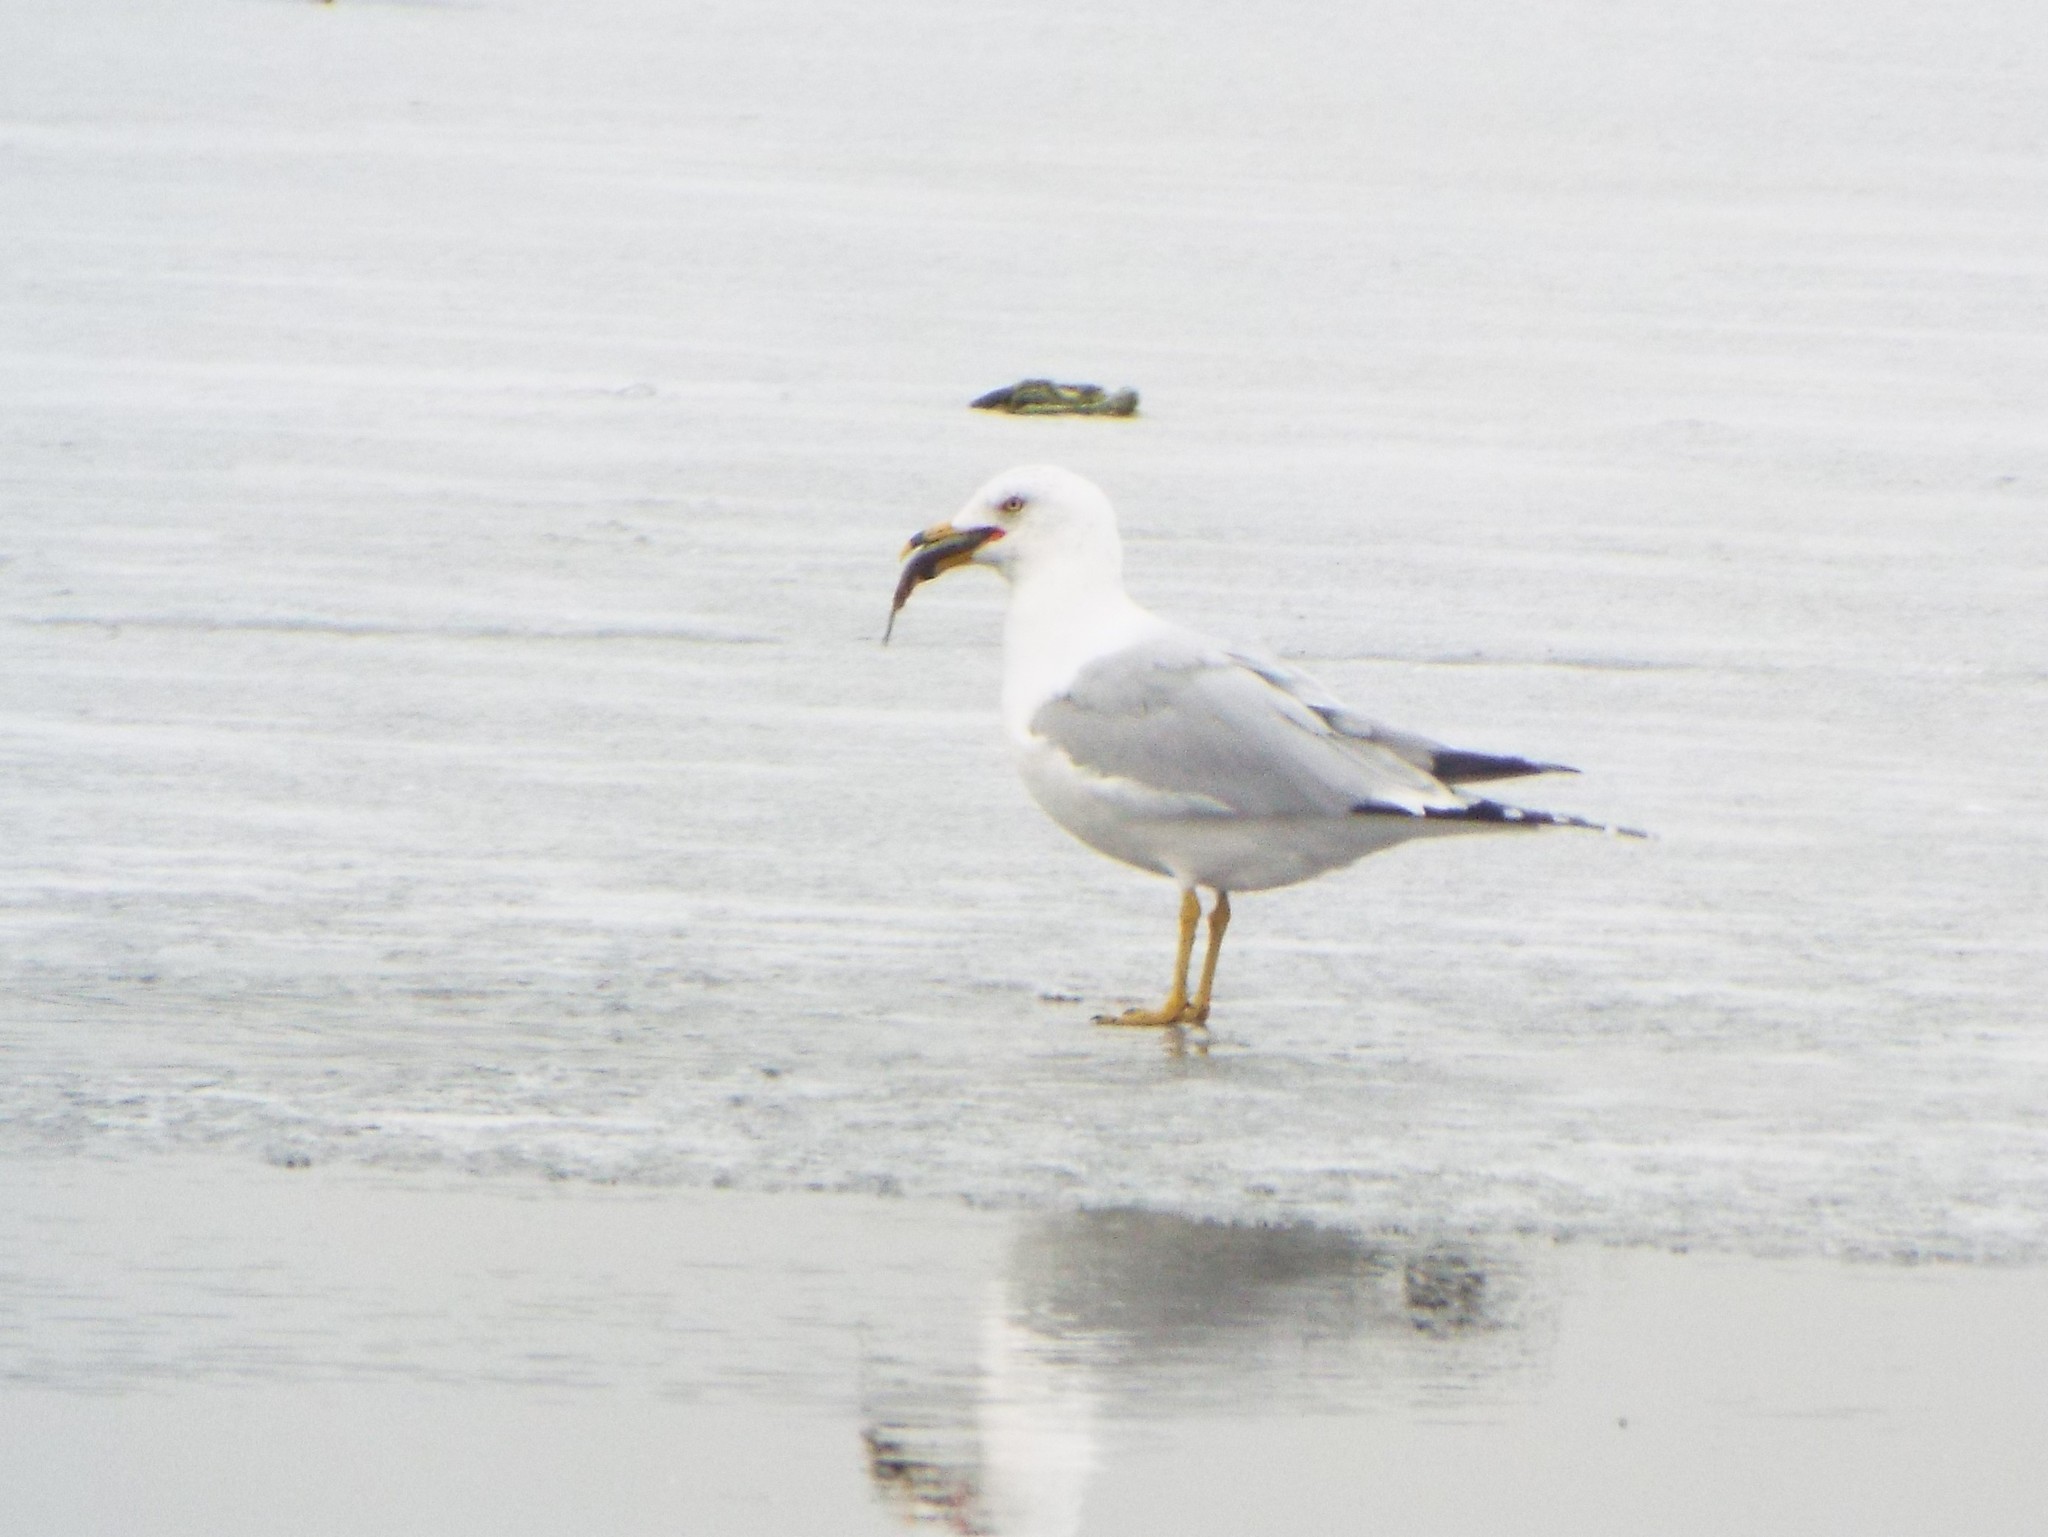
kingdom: Animalia
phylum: Chordata
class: Aves
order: Charadriiformes
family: Laridae
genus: Larus
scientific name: Larus delawarensis
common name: Ring-billed gull
